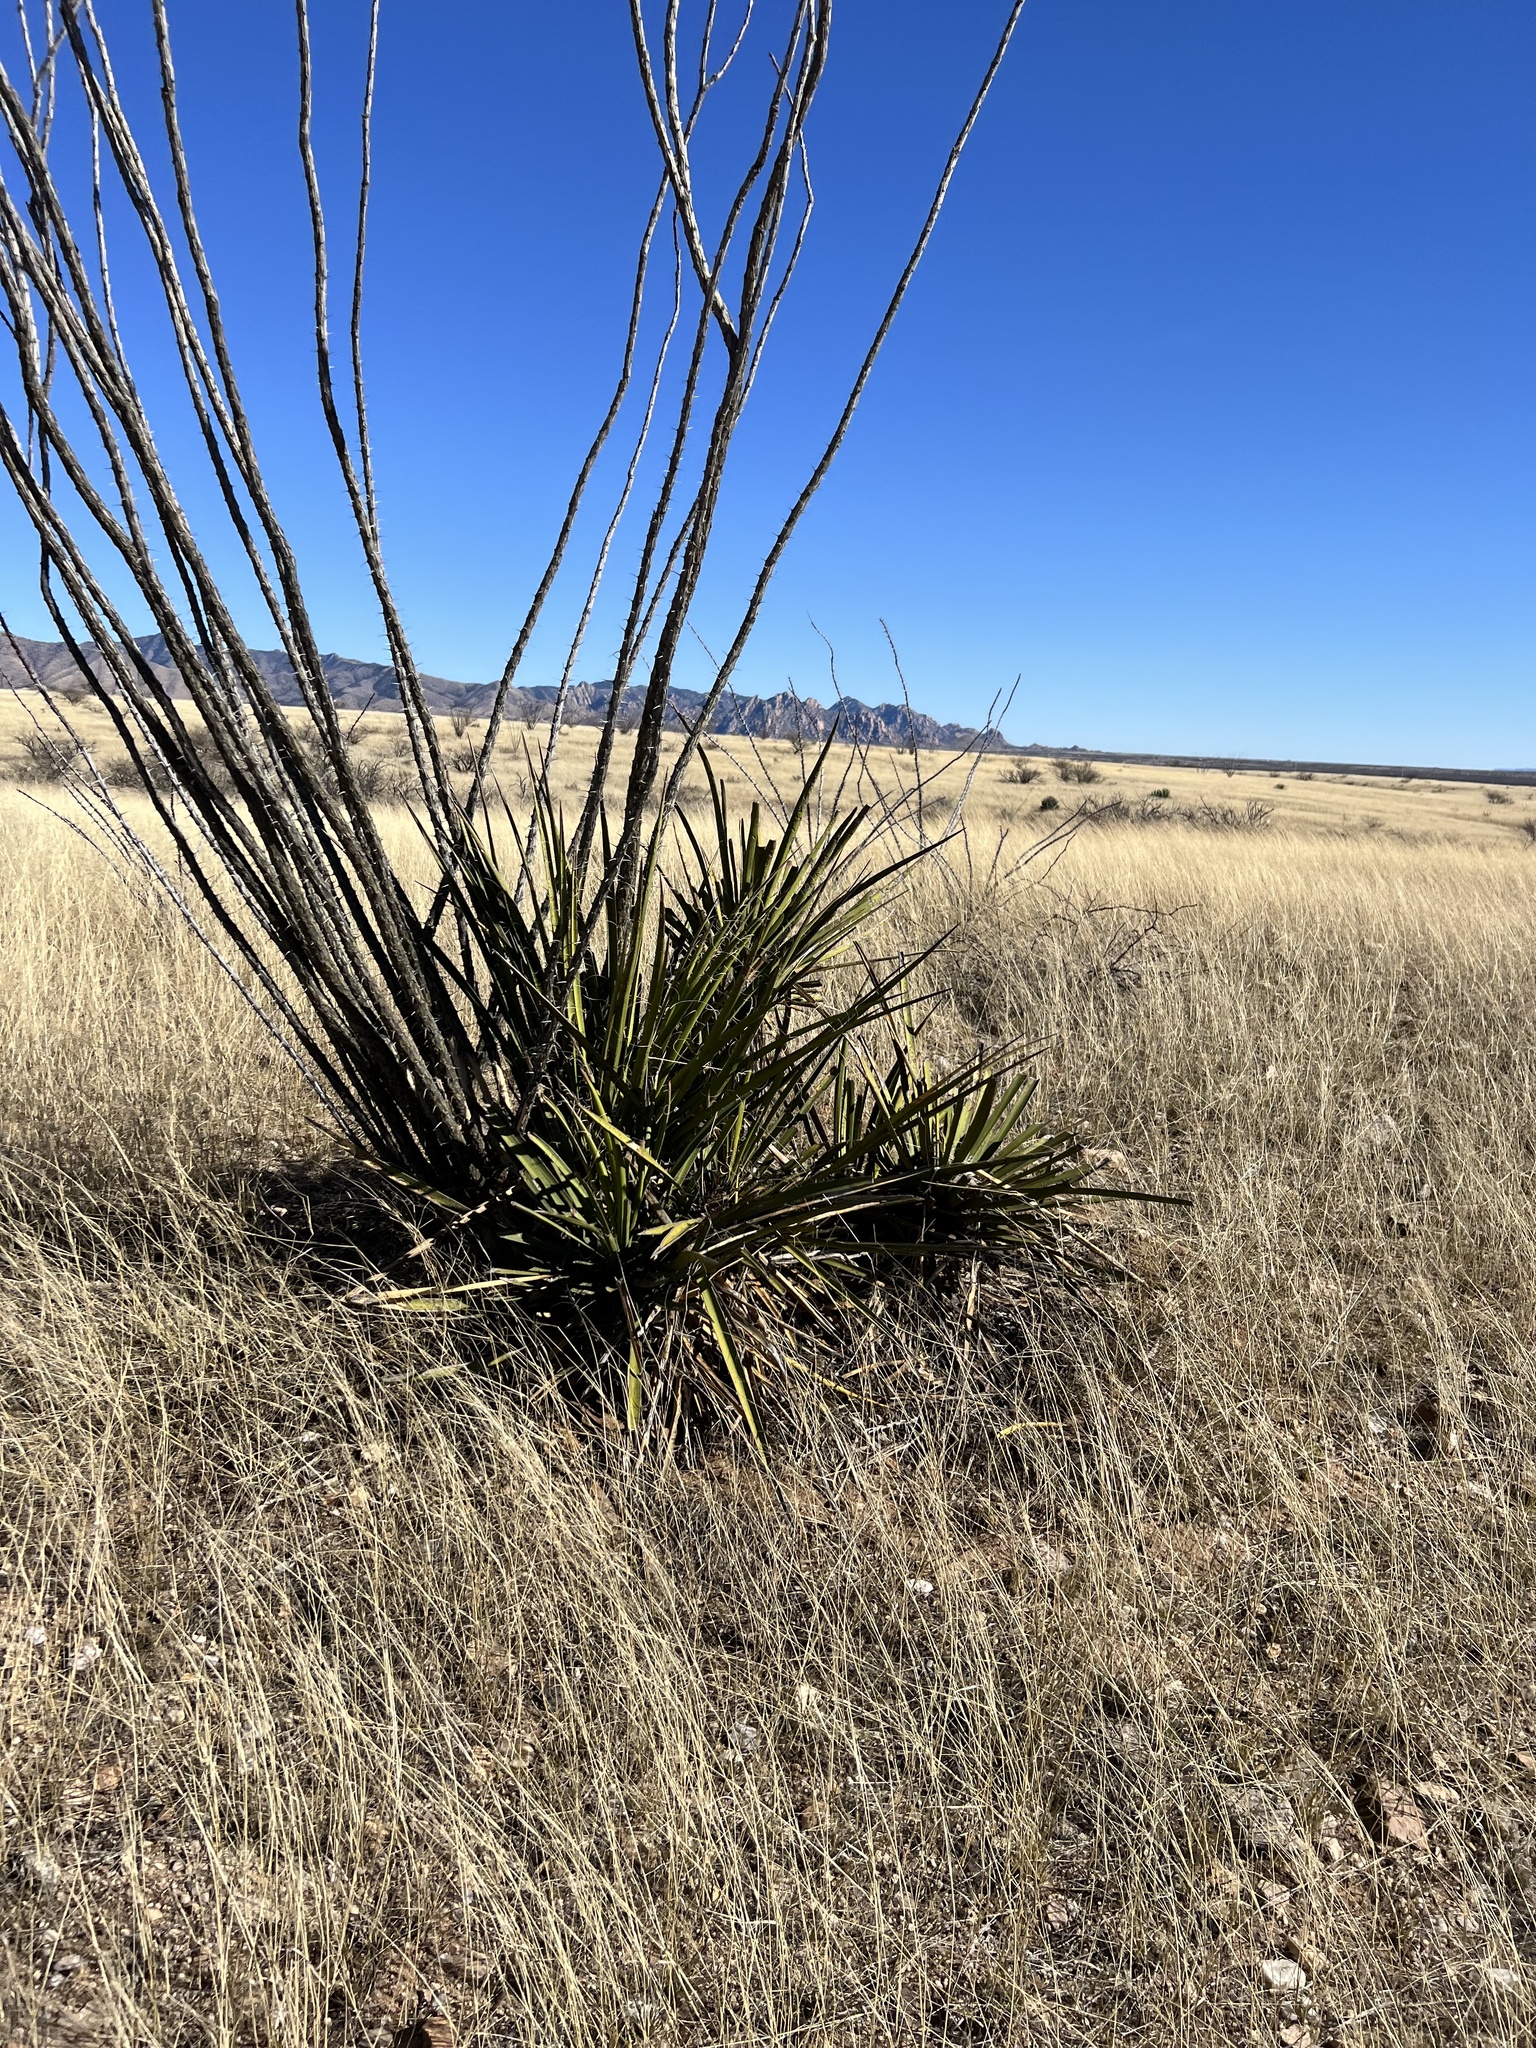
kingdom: Plantae
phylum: Tracheophyta
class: Liliopsida
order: Asparagales
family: Asparagaceae
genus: Yucca
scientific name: Yucca baccata
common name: Banana yucca
